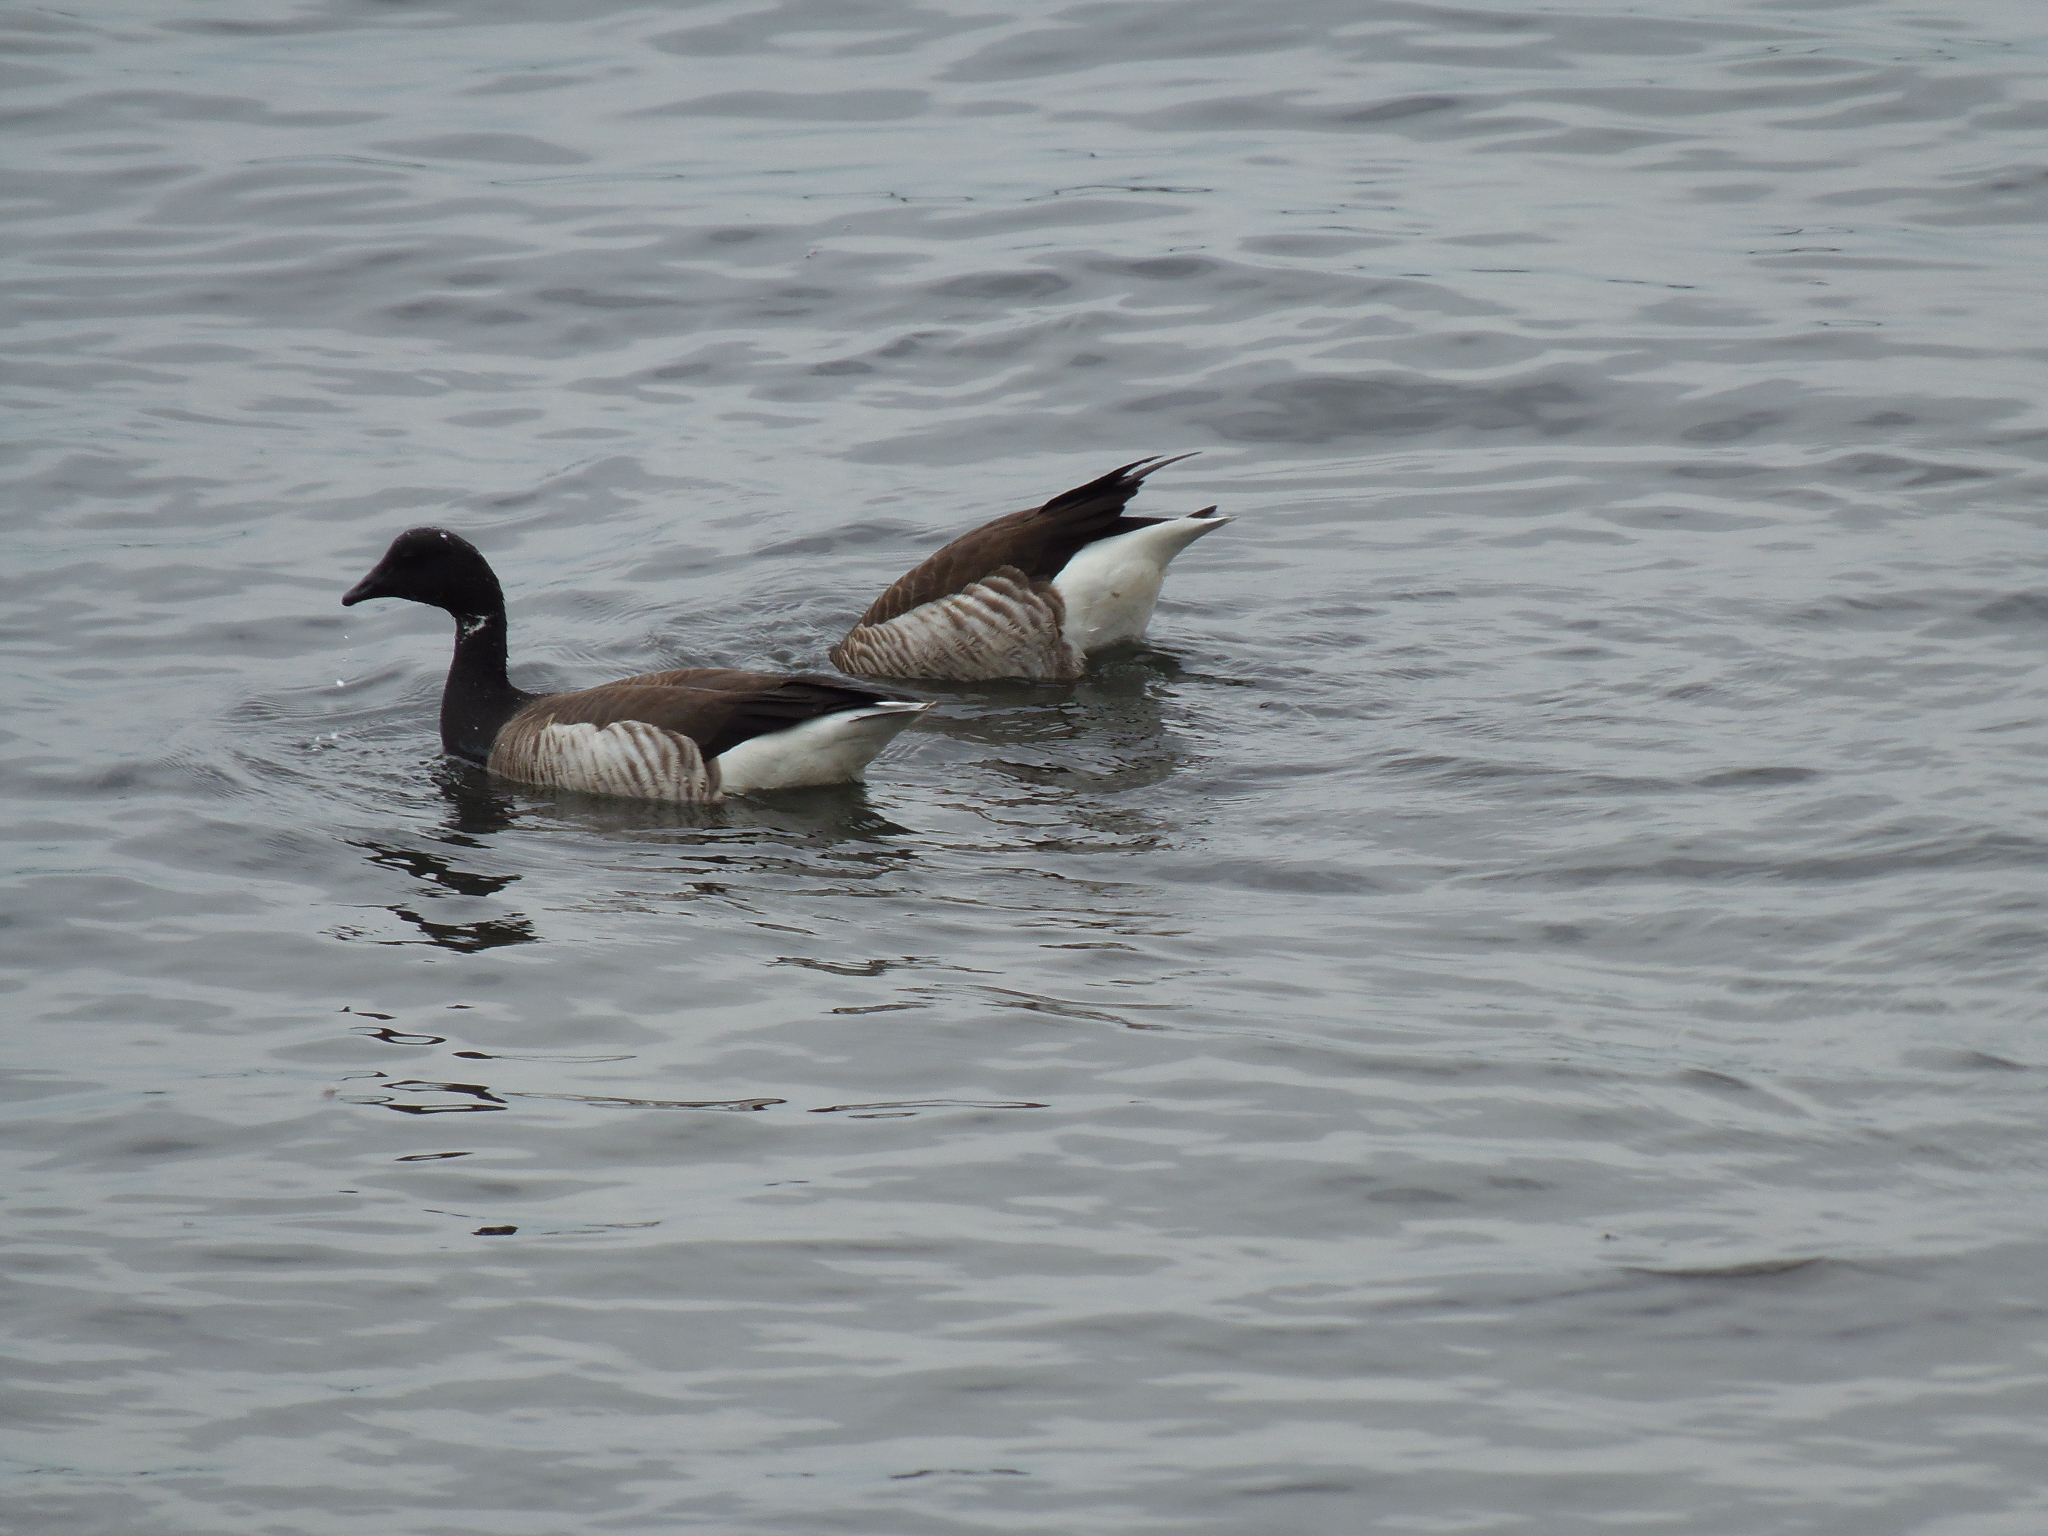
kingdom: Animalia
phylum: Chordata
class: Aves
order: Anseriformes
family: Anatidae
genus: Branta
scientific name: Branta bernicla
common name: Brant goose
